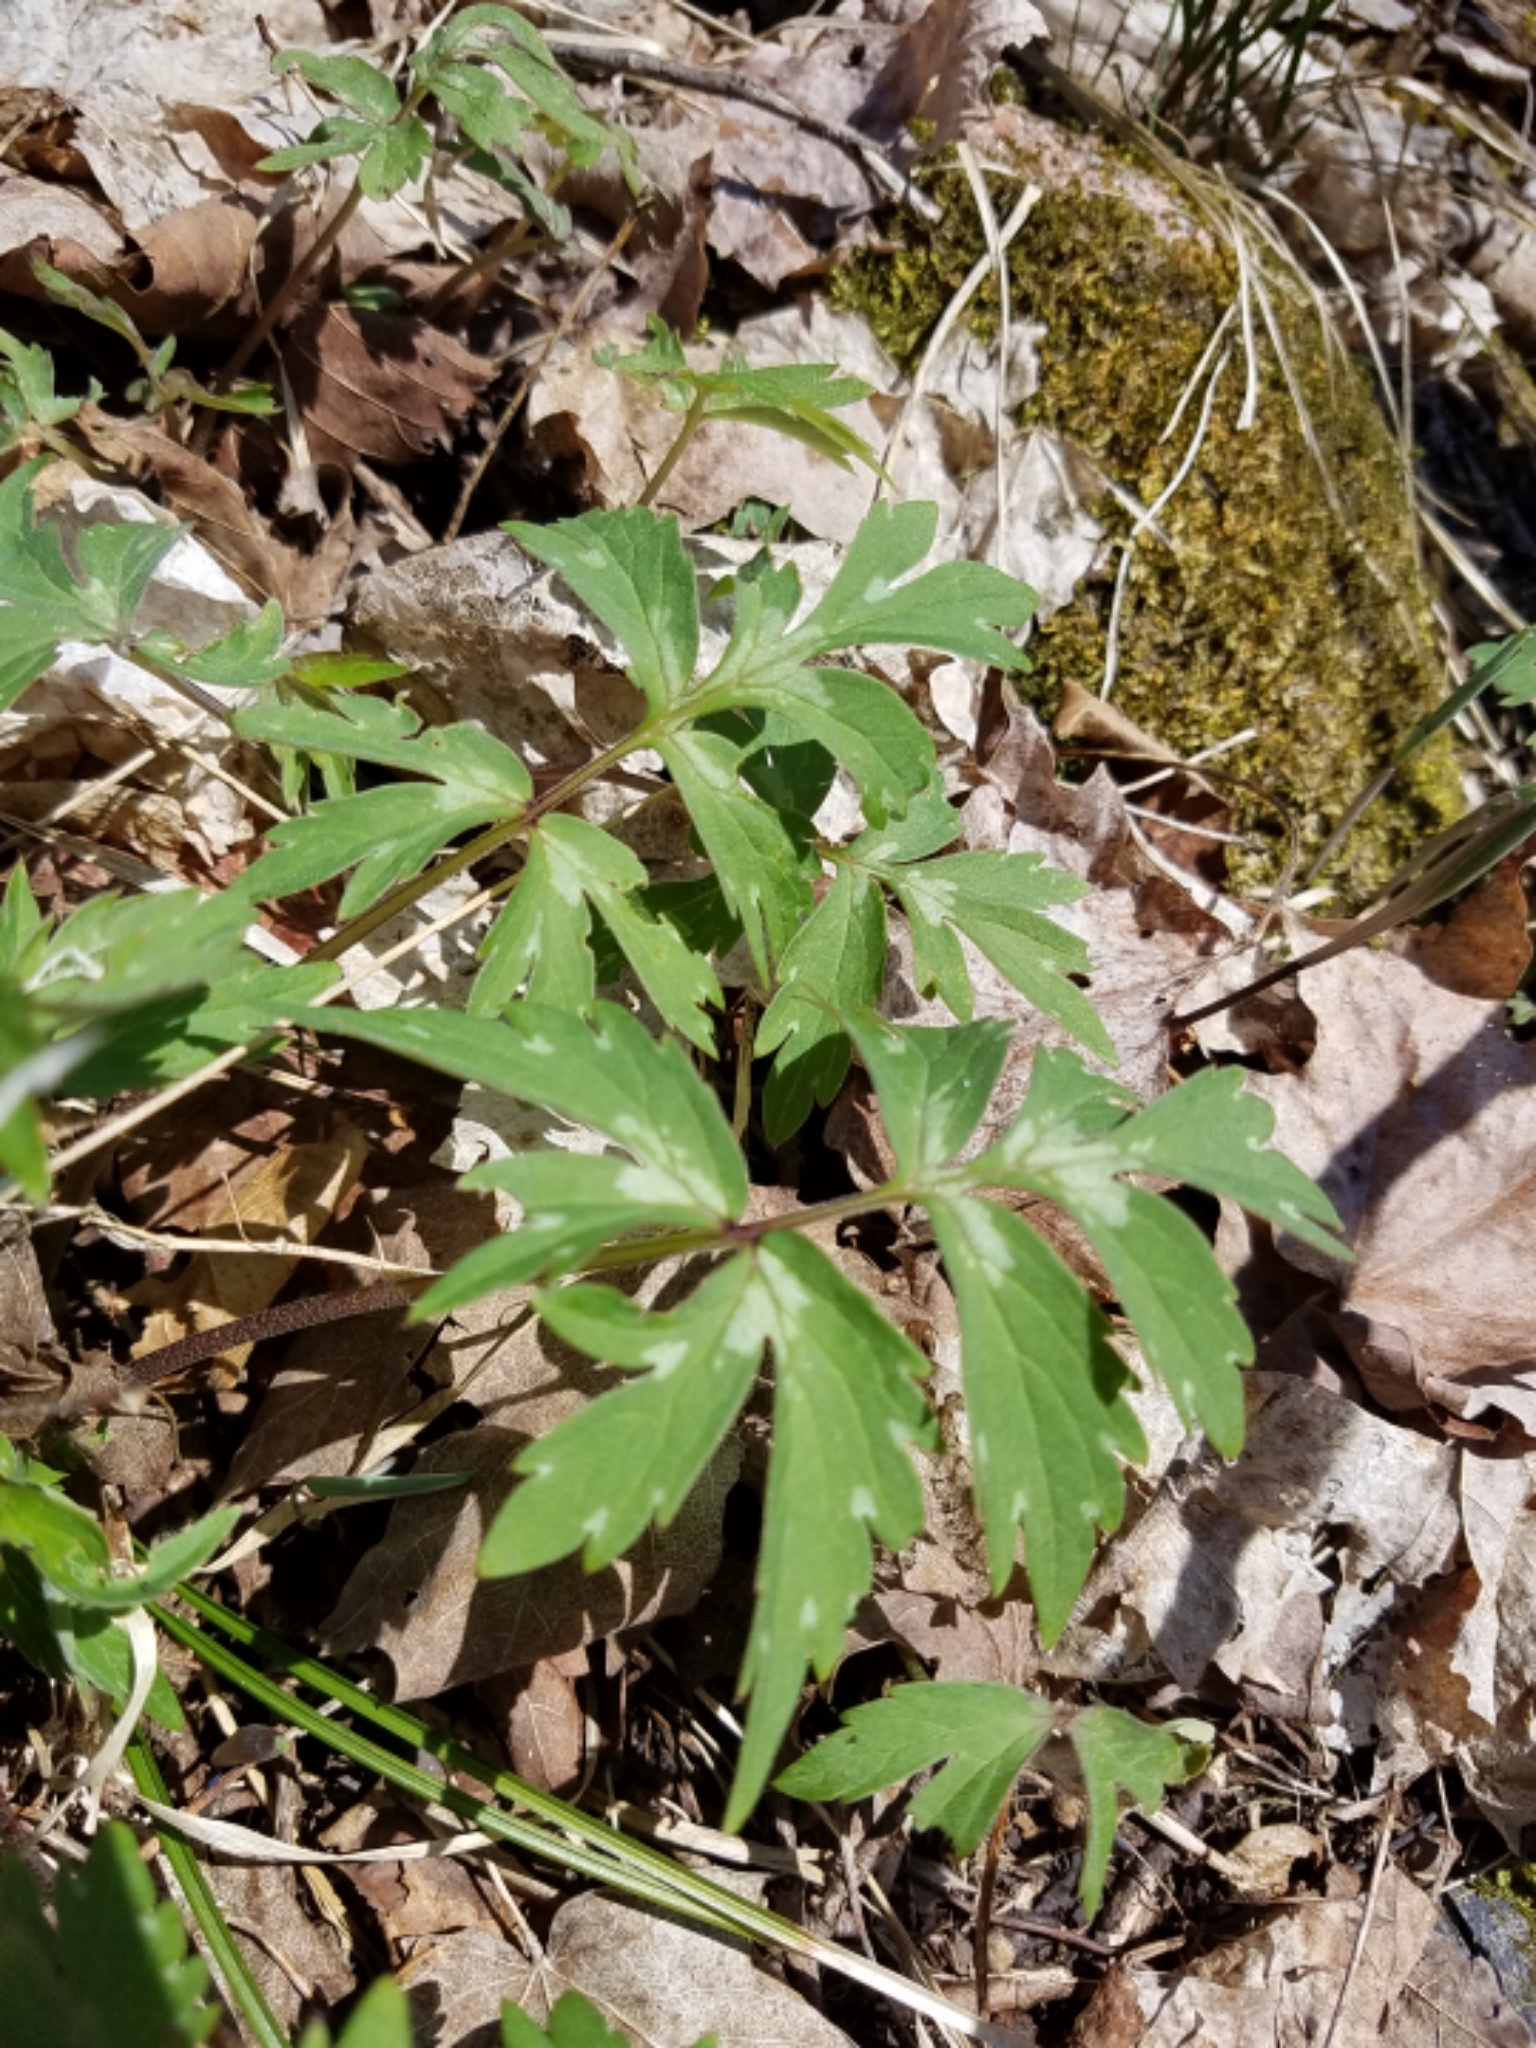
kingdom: Plantae
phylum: Tracheophyta
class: Magnoliopsida
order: Boraginales
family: Hydrophyllaceae
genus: Hydrophyllum
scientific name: Hydrophyllum virginianum
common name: Virginia waterleaf
